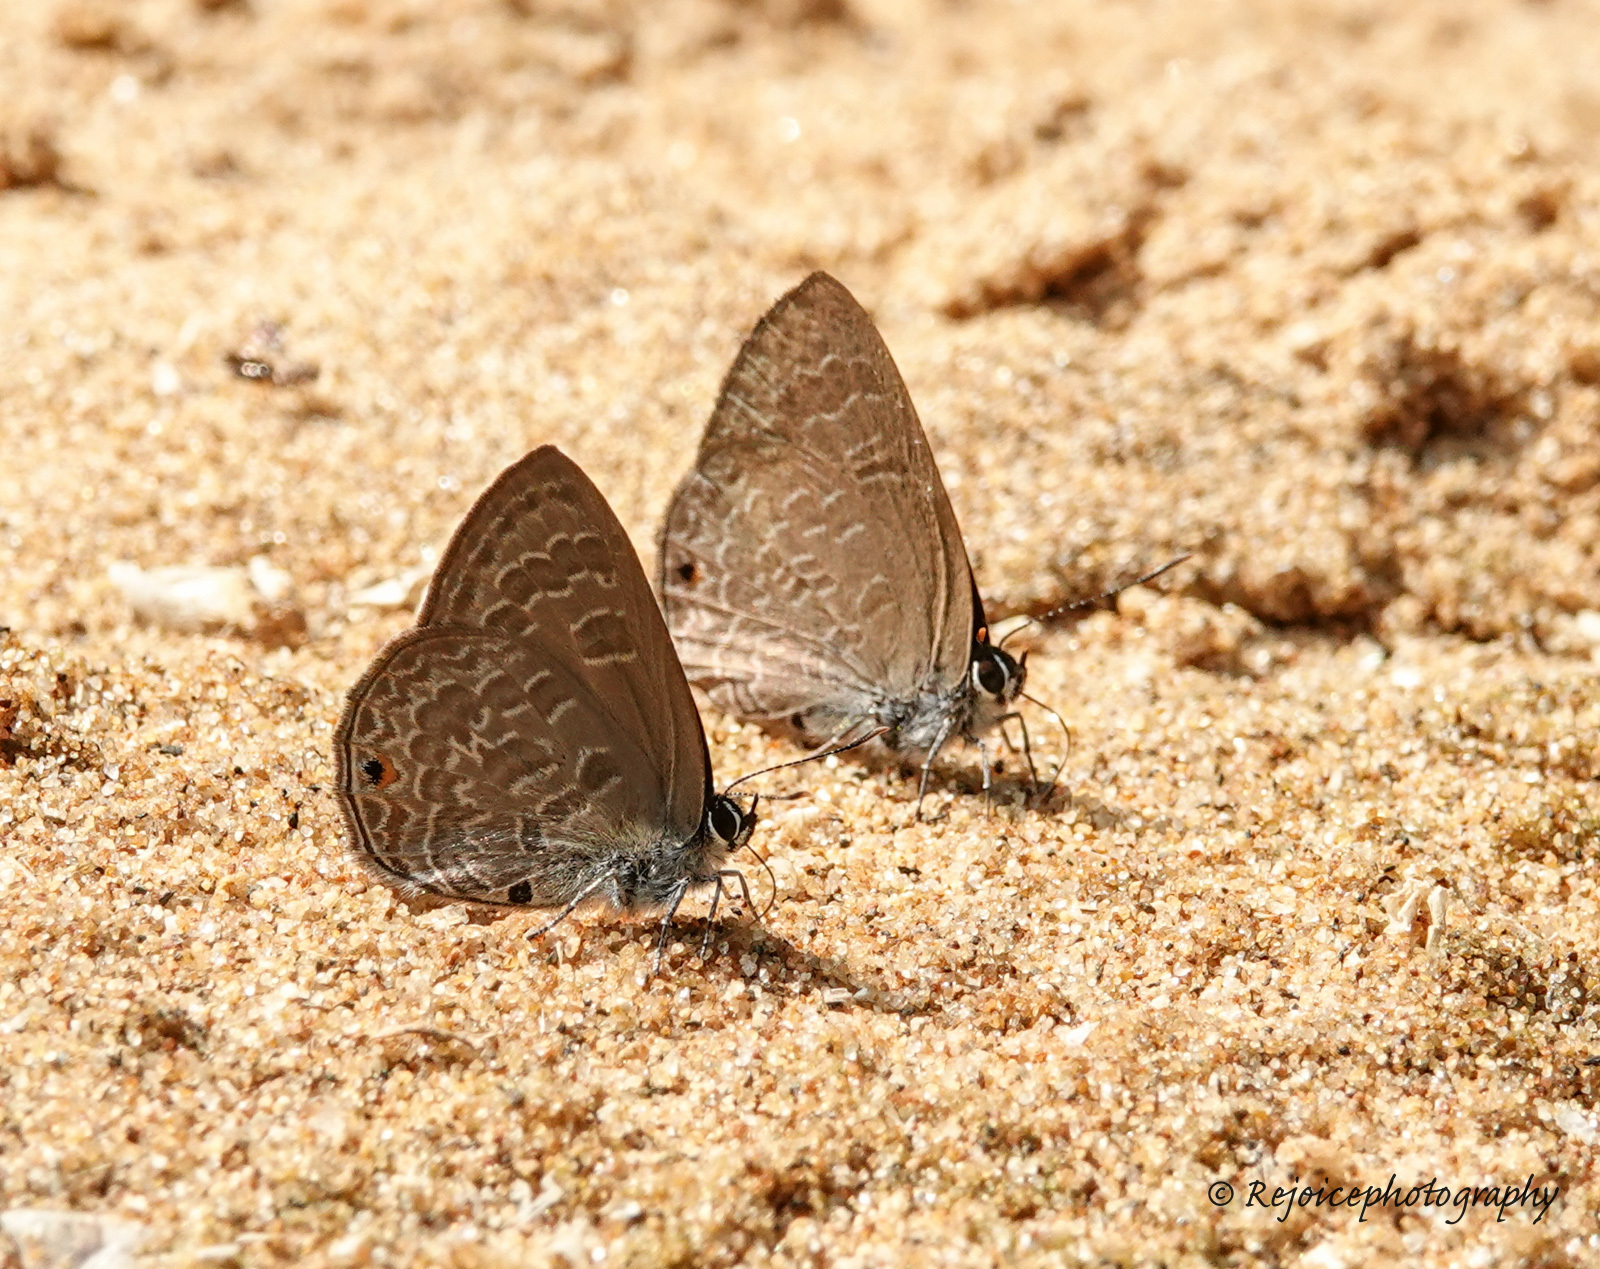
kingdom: Animalia
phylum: Arthropoda
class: Insecta
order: Lepidoptera
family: Lycaenidae
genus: Anthene
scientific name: Anthene emolus
